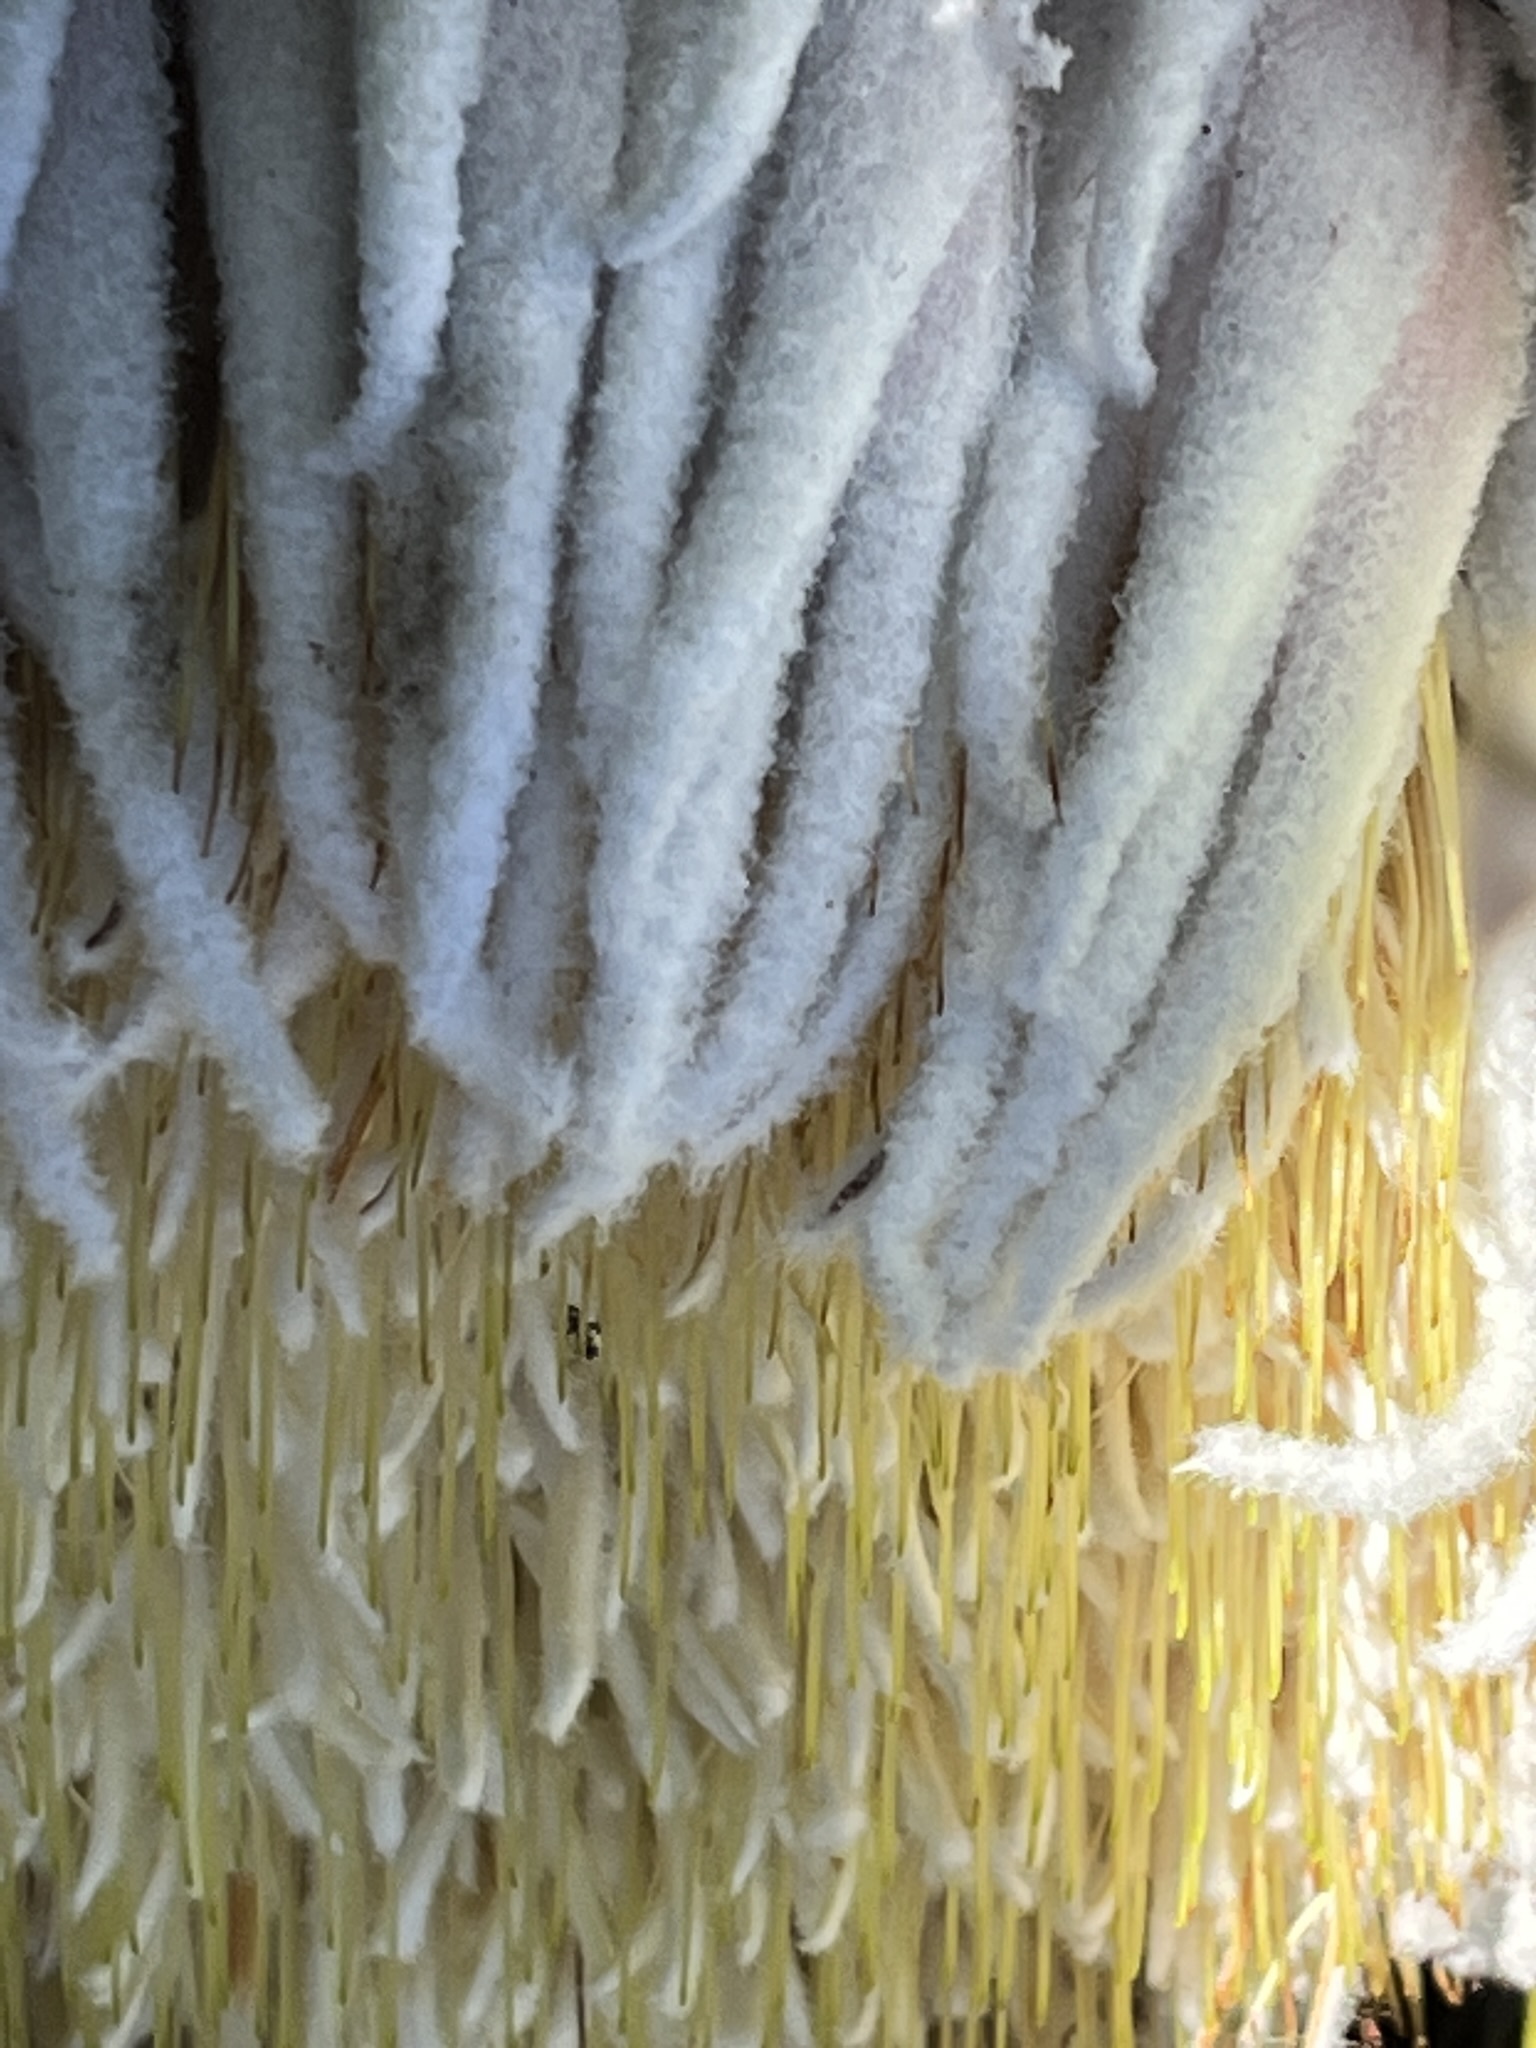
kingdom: Plantae
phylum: Tracheophyta
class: Magnoliopsida
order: Proteales
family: Proteaceae
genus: Protea
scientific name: Protea cryophila
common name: Snow protea
